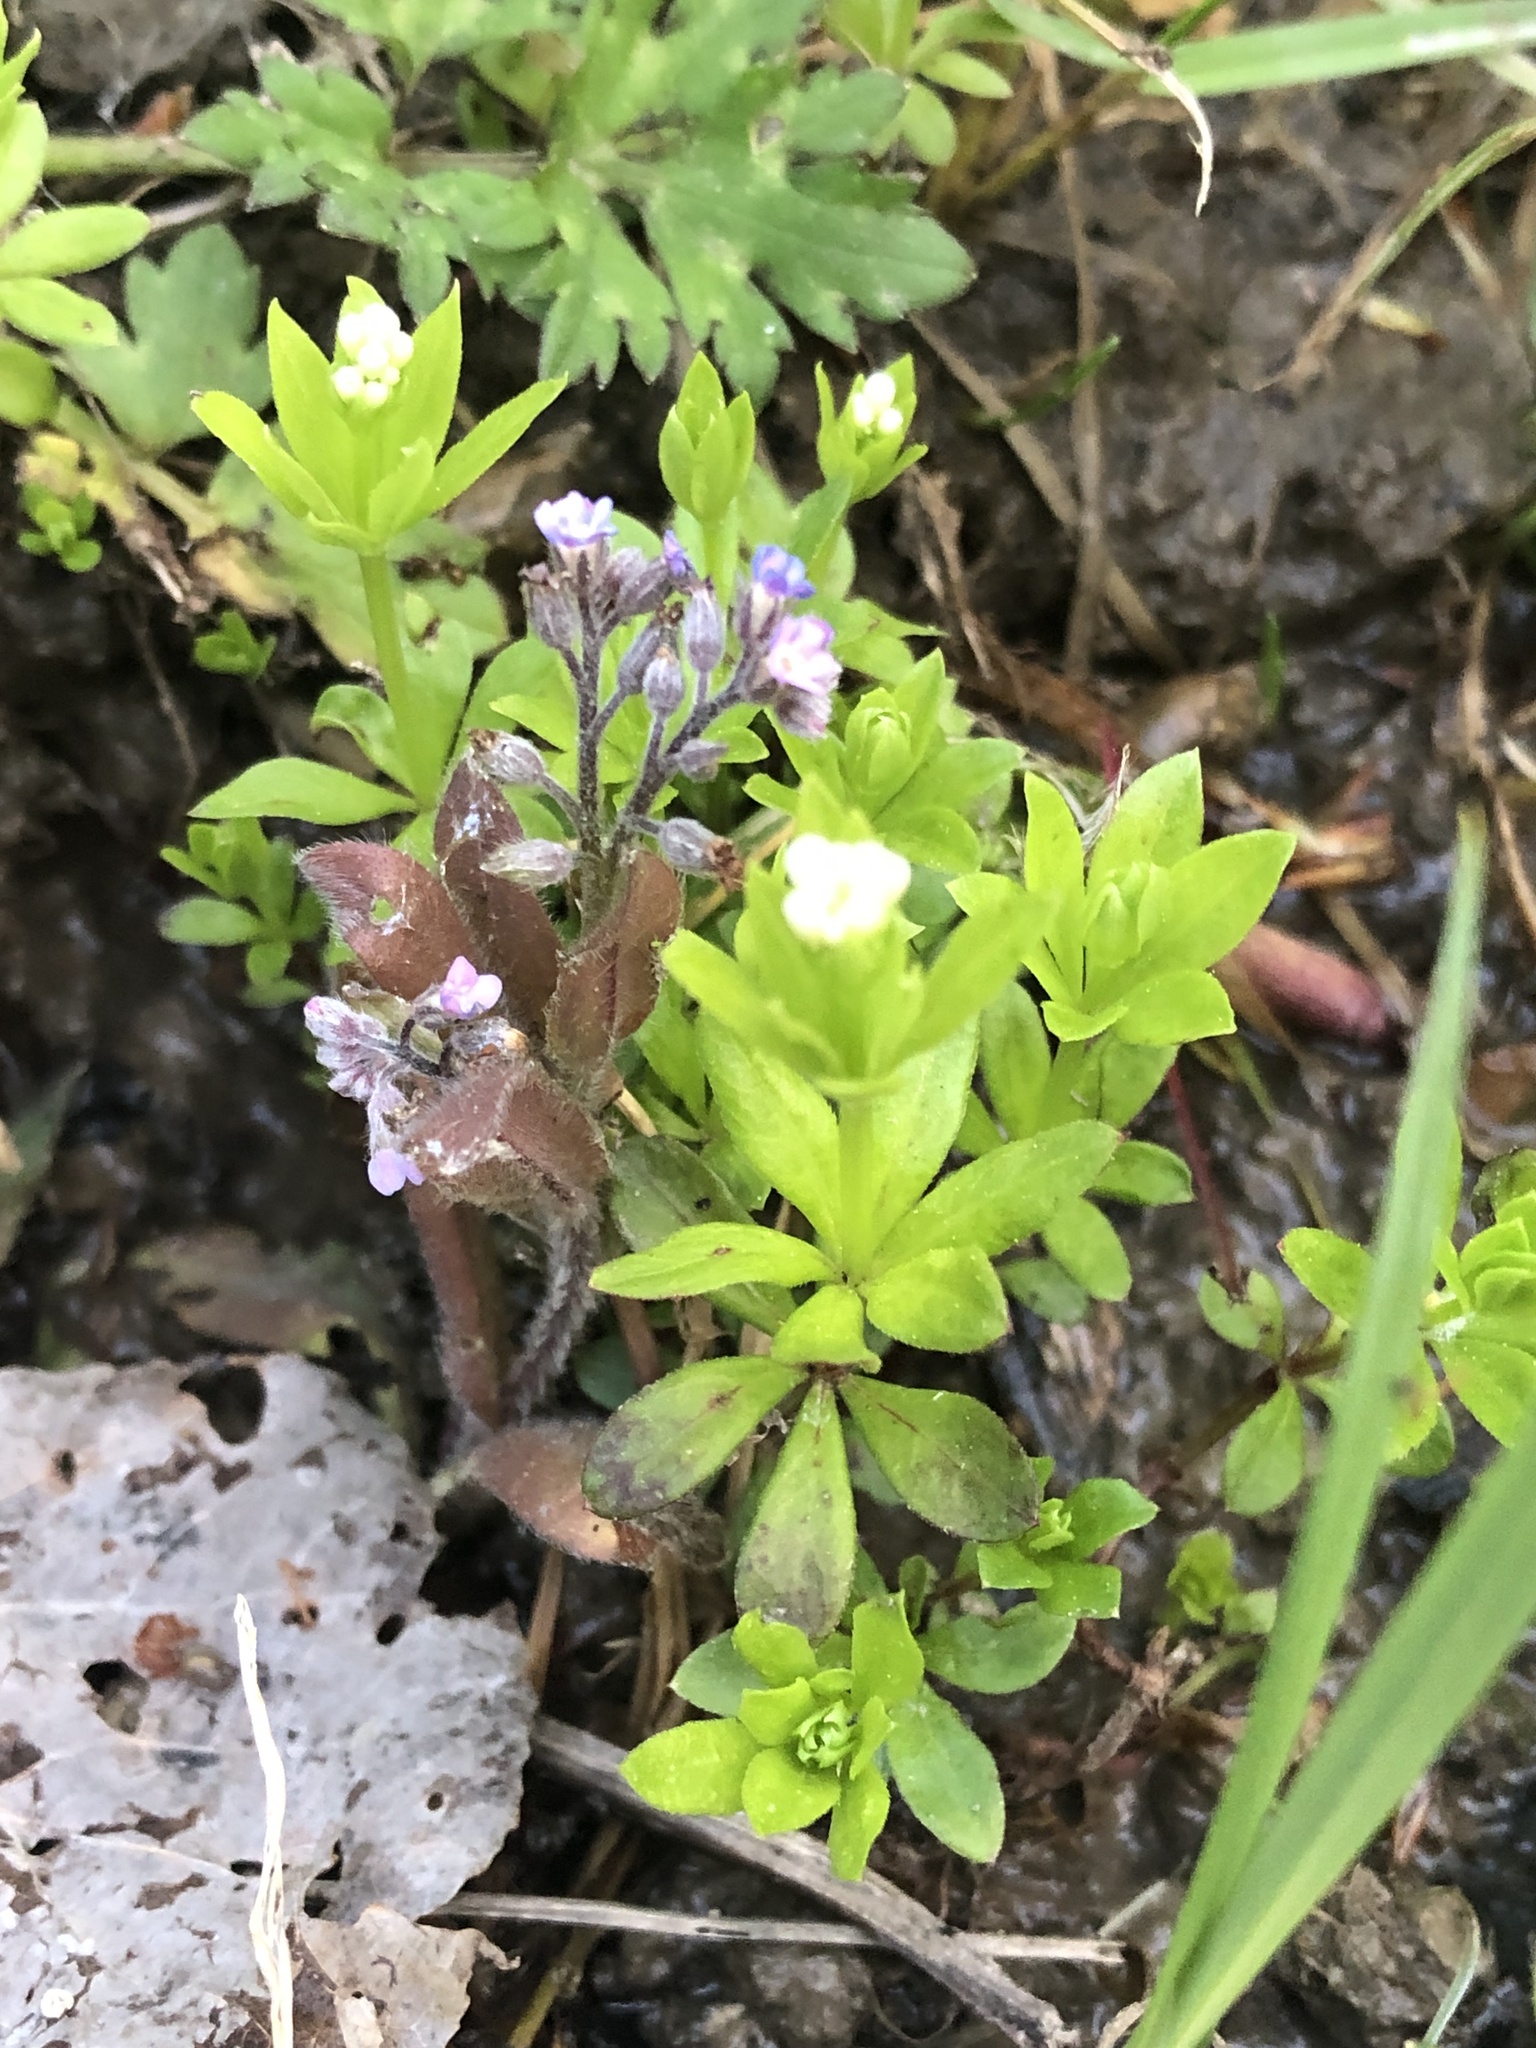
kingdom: Plantae
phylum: Tracheophyta
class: Magnoliopsida
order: Gentianales
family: Rubiaceae
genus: Galium
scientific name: Galium odoratum
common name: Sweet woodruff
